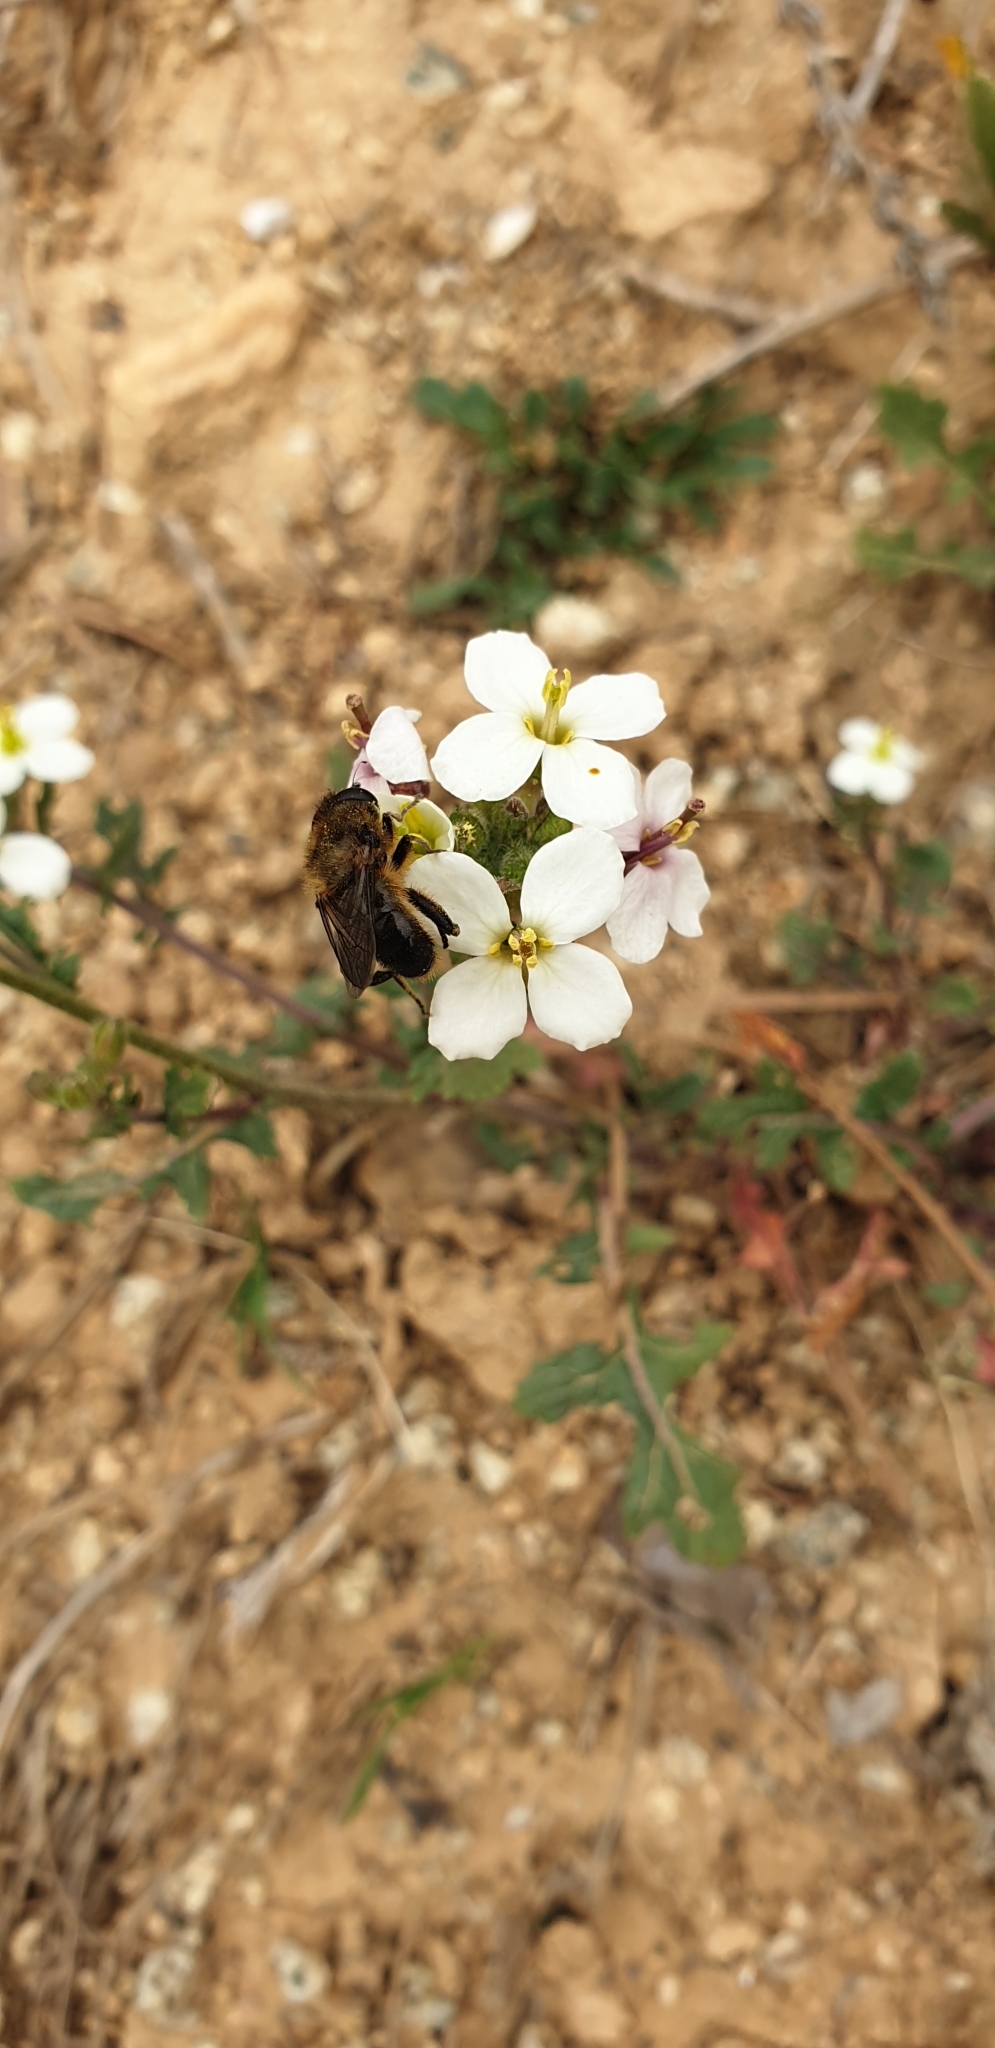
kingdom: Animalia
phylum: Arthropoda
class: Insecta
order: Diptera
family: Syrphidae
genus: Merodon
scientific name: Merodon setosus
